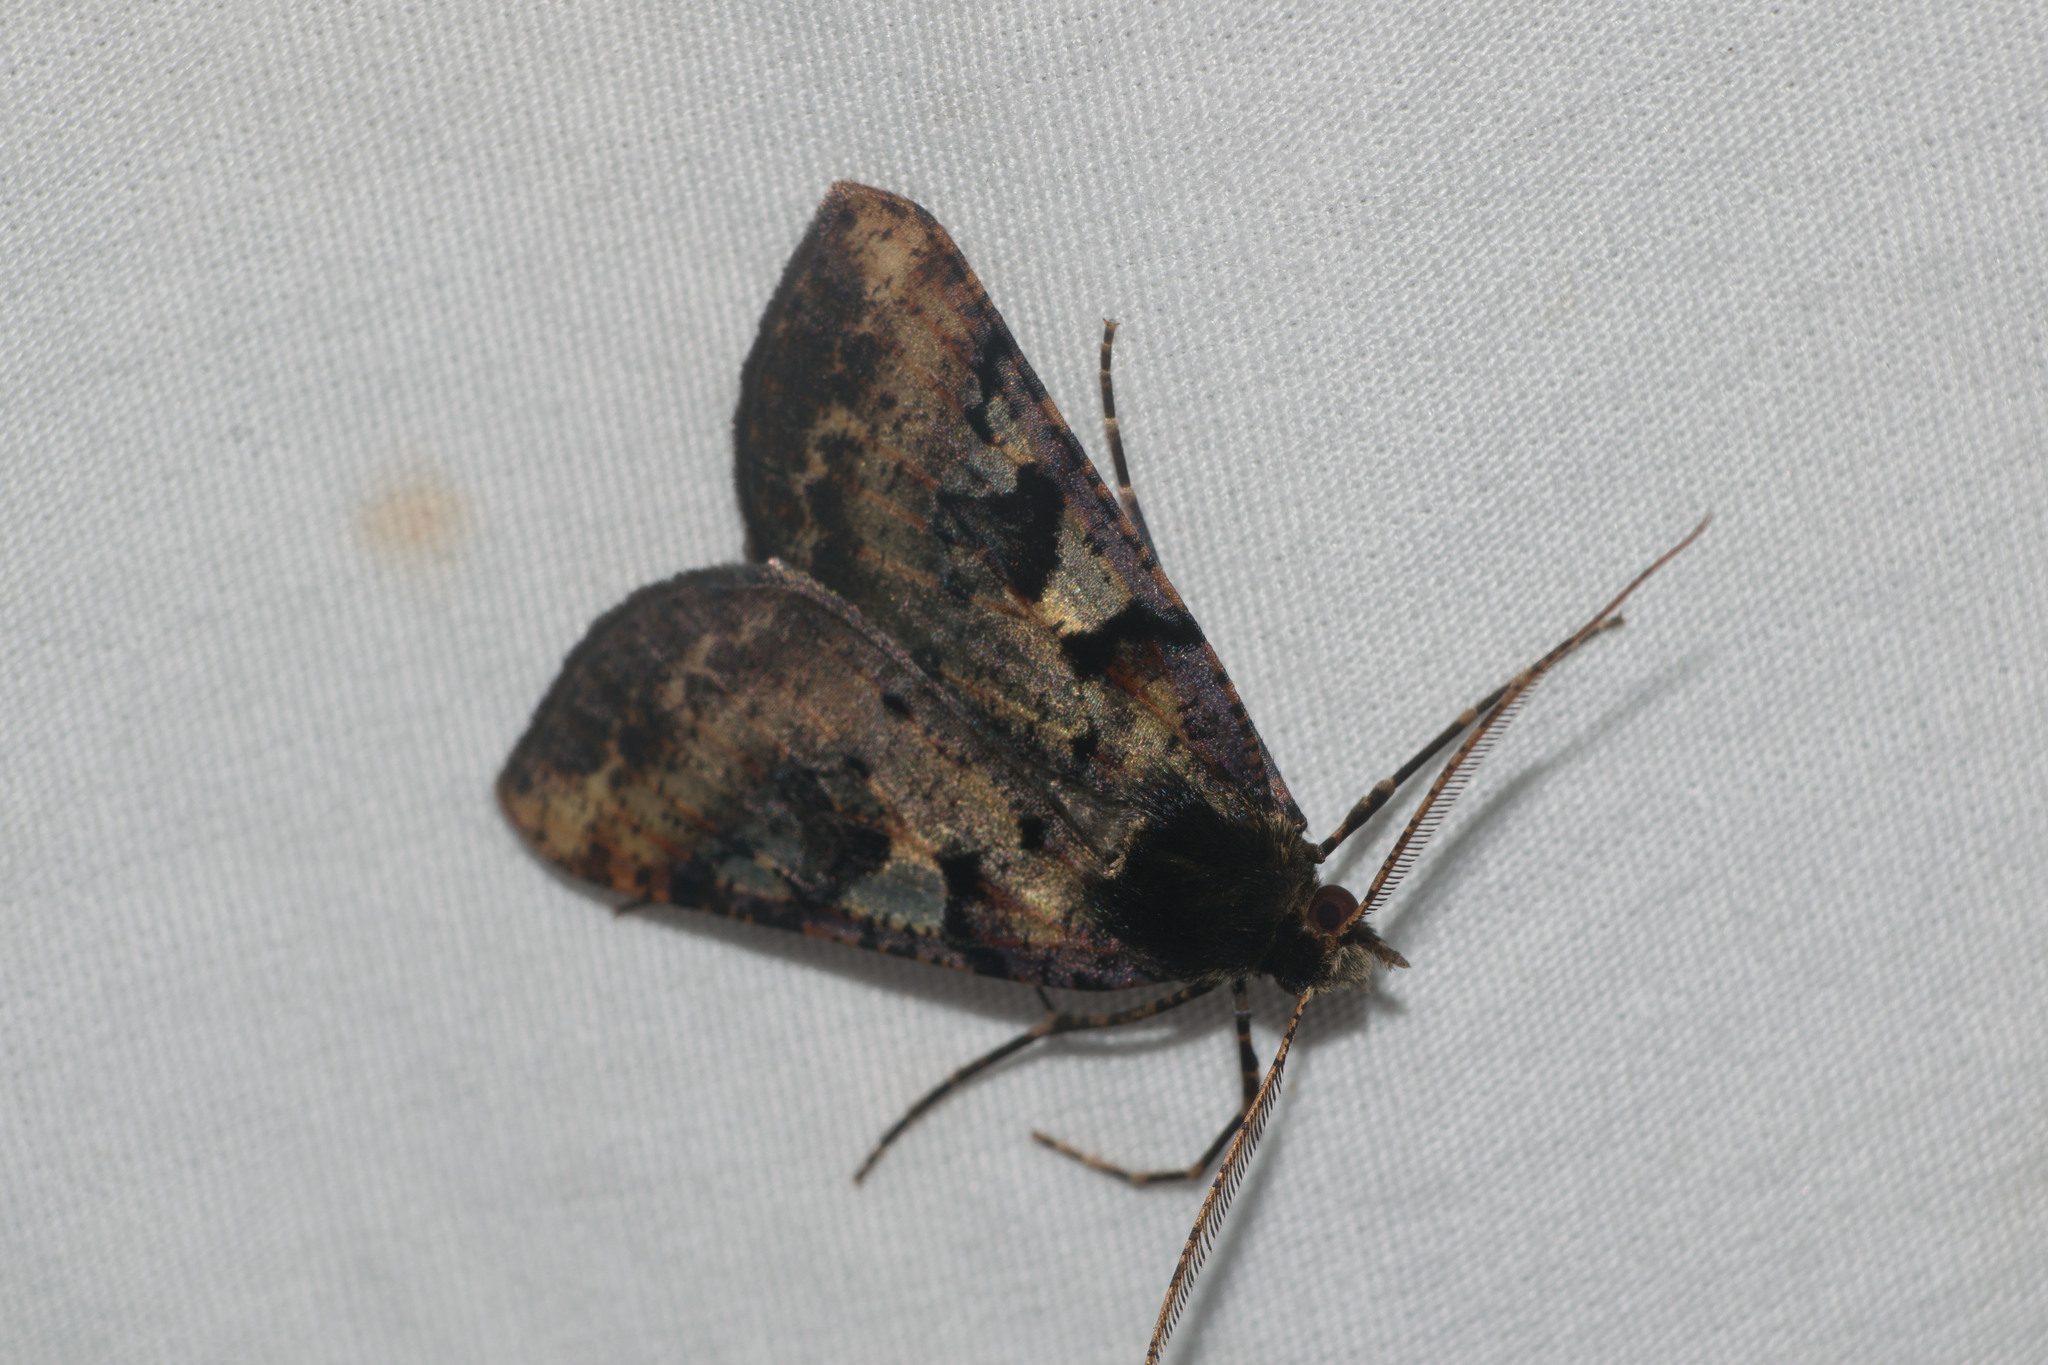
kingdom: Animalia
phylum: Arthropoda
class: Insecta
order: Lepidoptera
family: Geometridae
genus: Scotorythra
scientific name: Scotorythra pachyspila
